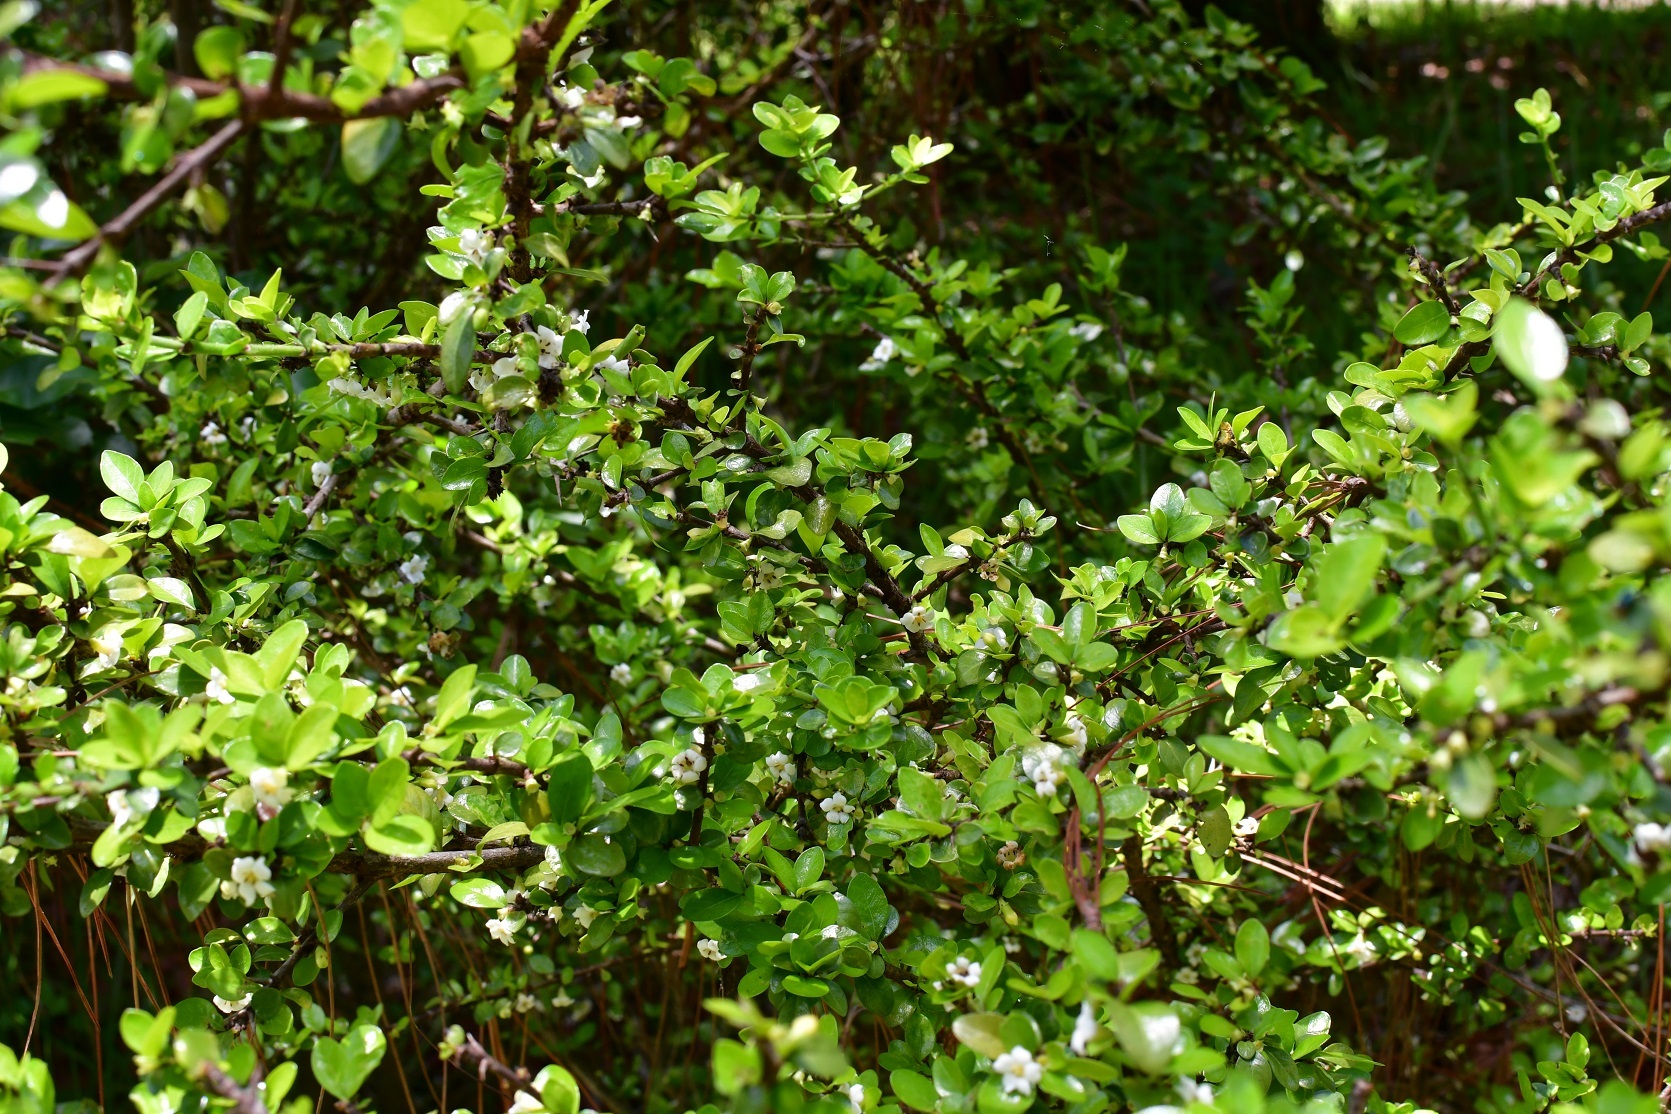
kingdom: Plantae
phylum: Tracheophyta
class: Magnoliopsida
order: Gentianales
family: Rubiaceae
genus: Randia
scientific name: Randia chiapensis
